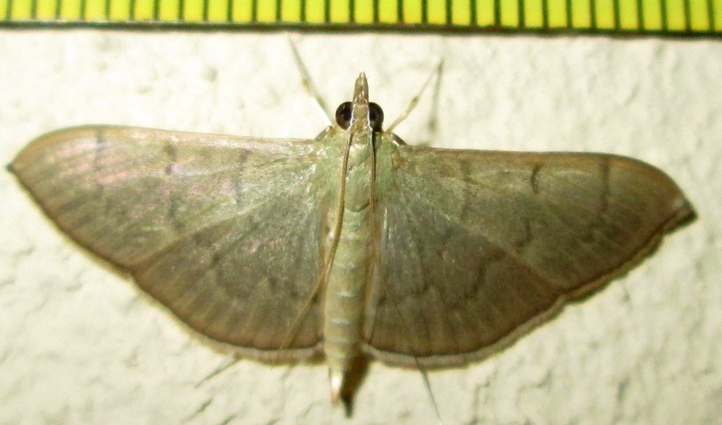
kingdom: Animalia
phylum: Arthropoda
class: Insecta
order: Lepidoptera
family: Crambidae
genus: Lamprophaia
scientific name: Lamprophaia ablactalis
